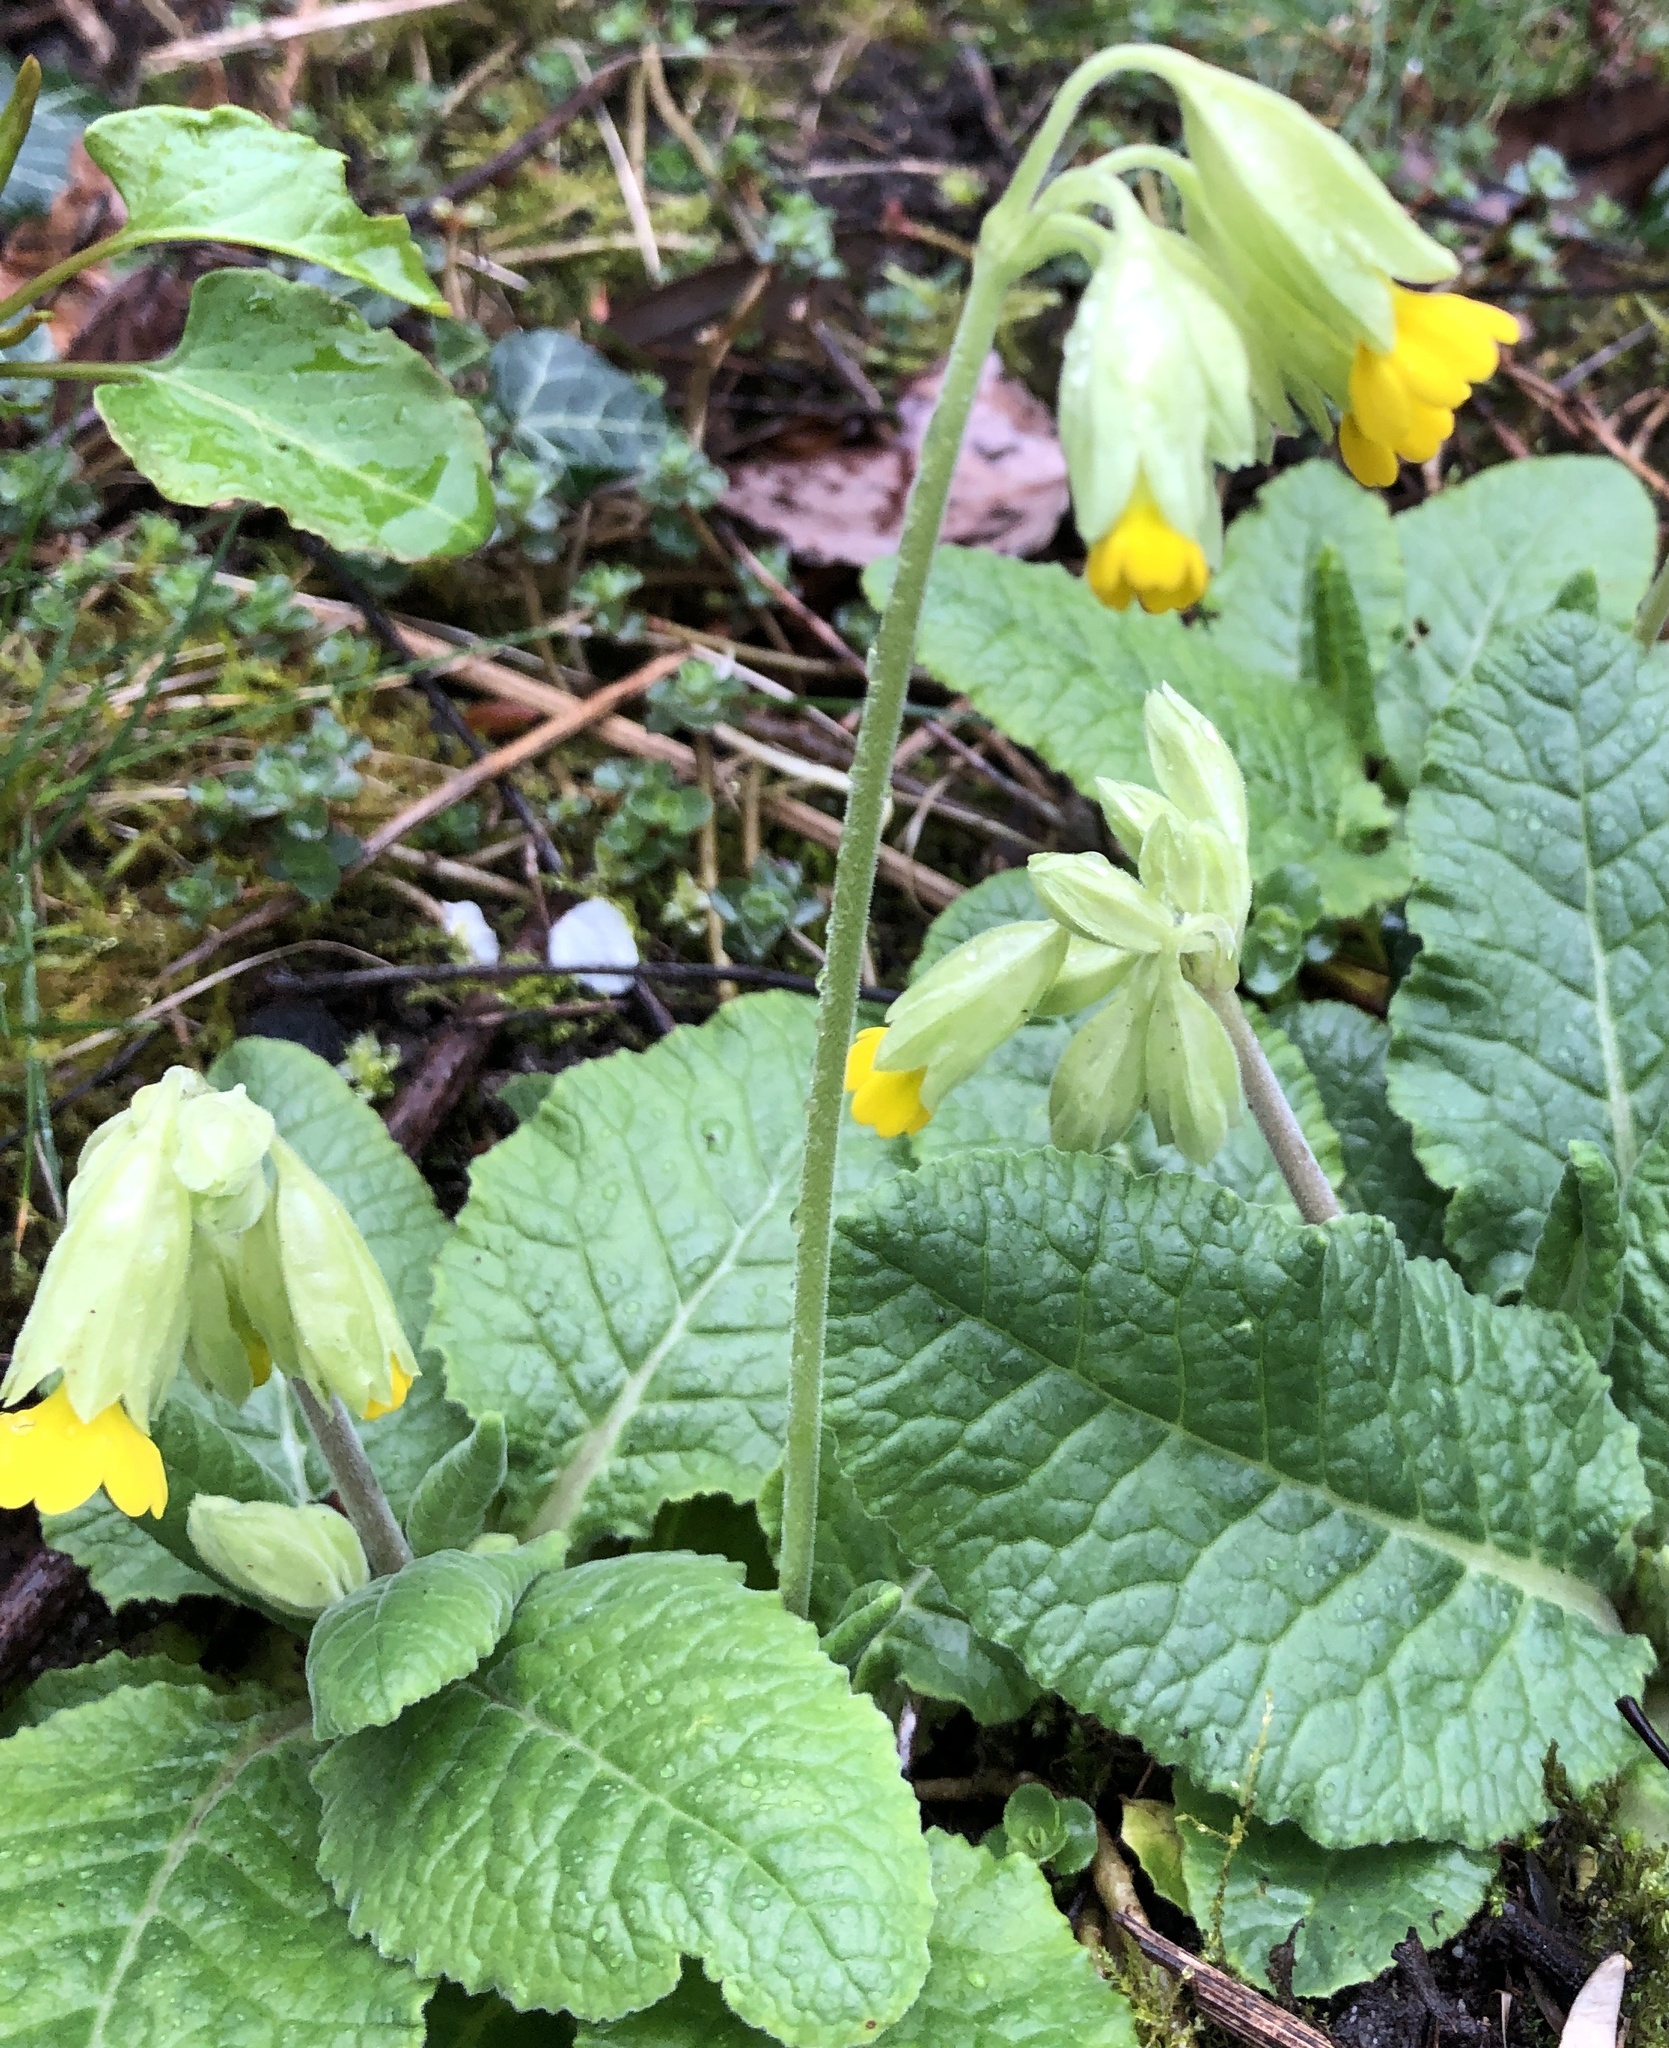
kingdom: Plantae
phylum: Tracheophyta
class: Magnoliopsida
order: Ericales
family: Primulaceae
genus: Primula
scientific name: Primula veris
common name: Cowslip
